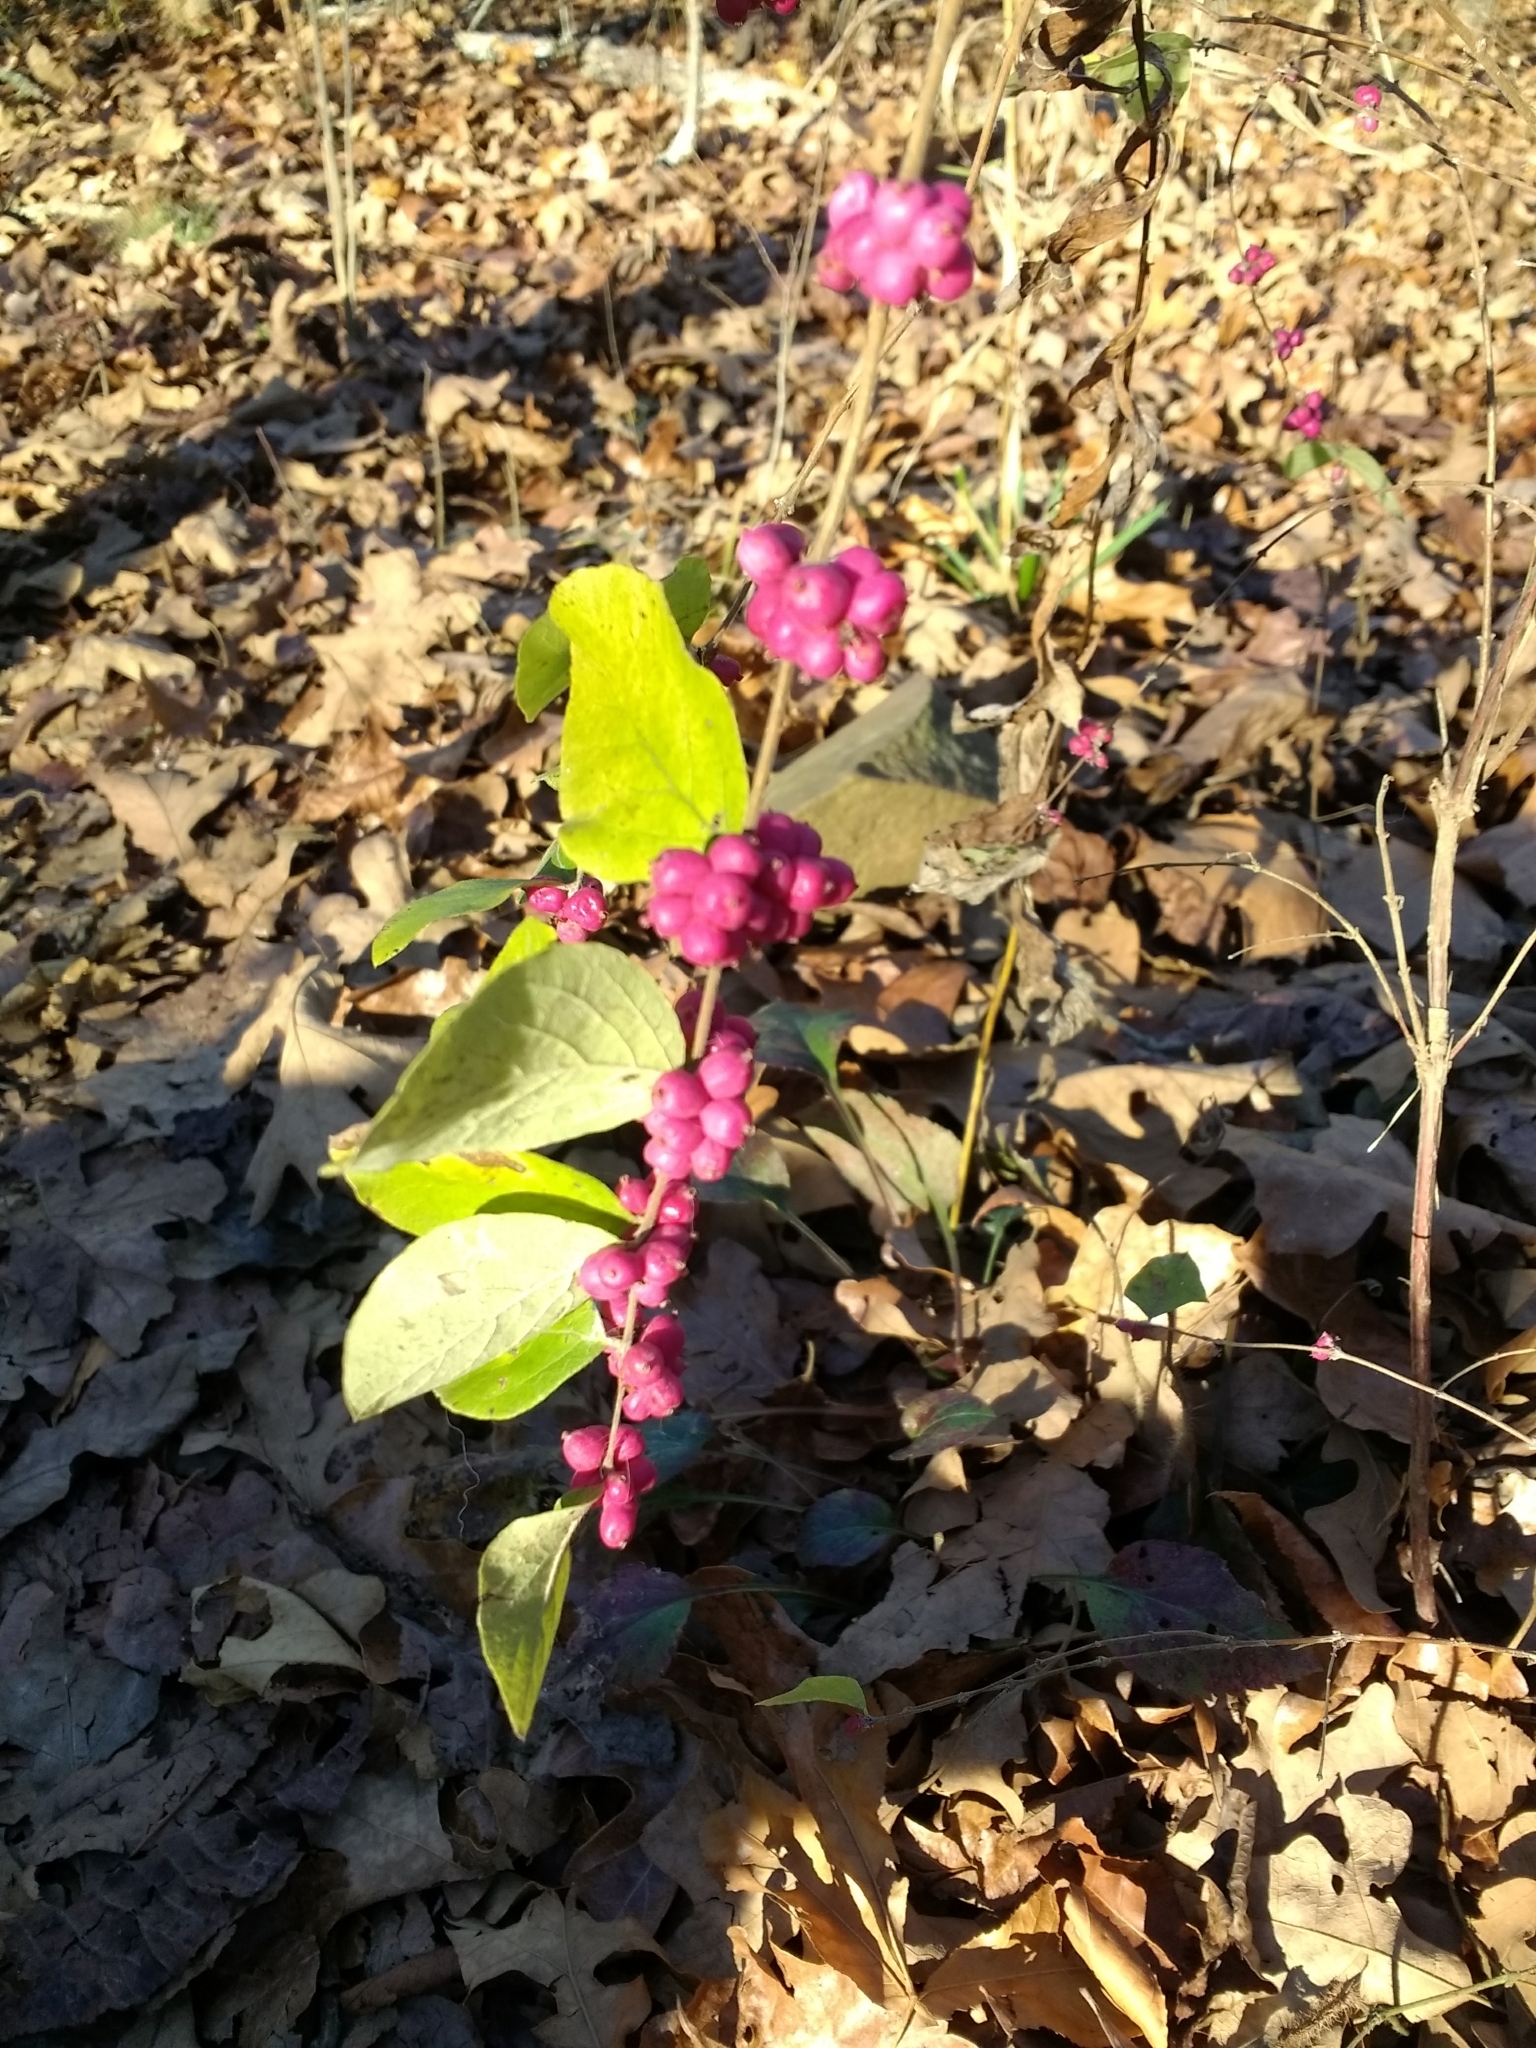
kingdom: Plantae
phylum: Tracheophyta
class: Magnoliopsida
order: Dipsacales
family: Caprifoliaceae
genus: Symphoricarpos
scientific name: Symphoricarpos orbiculatus
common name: Coralberry
